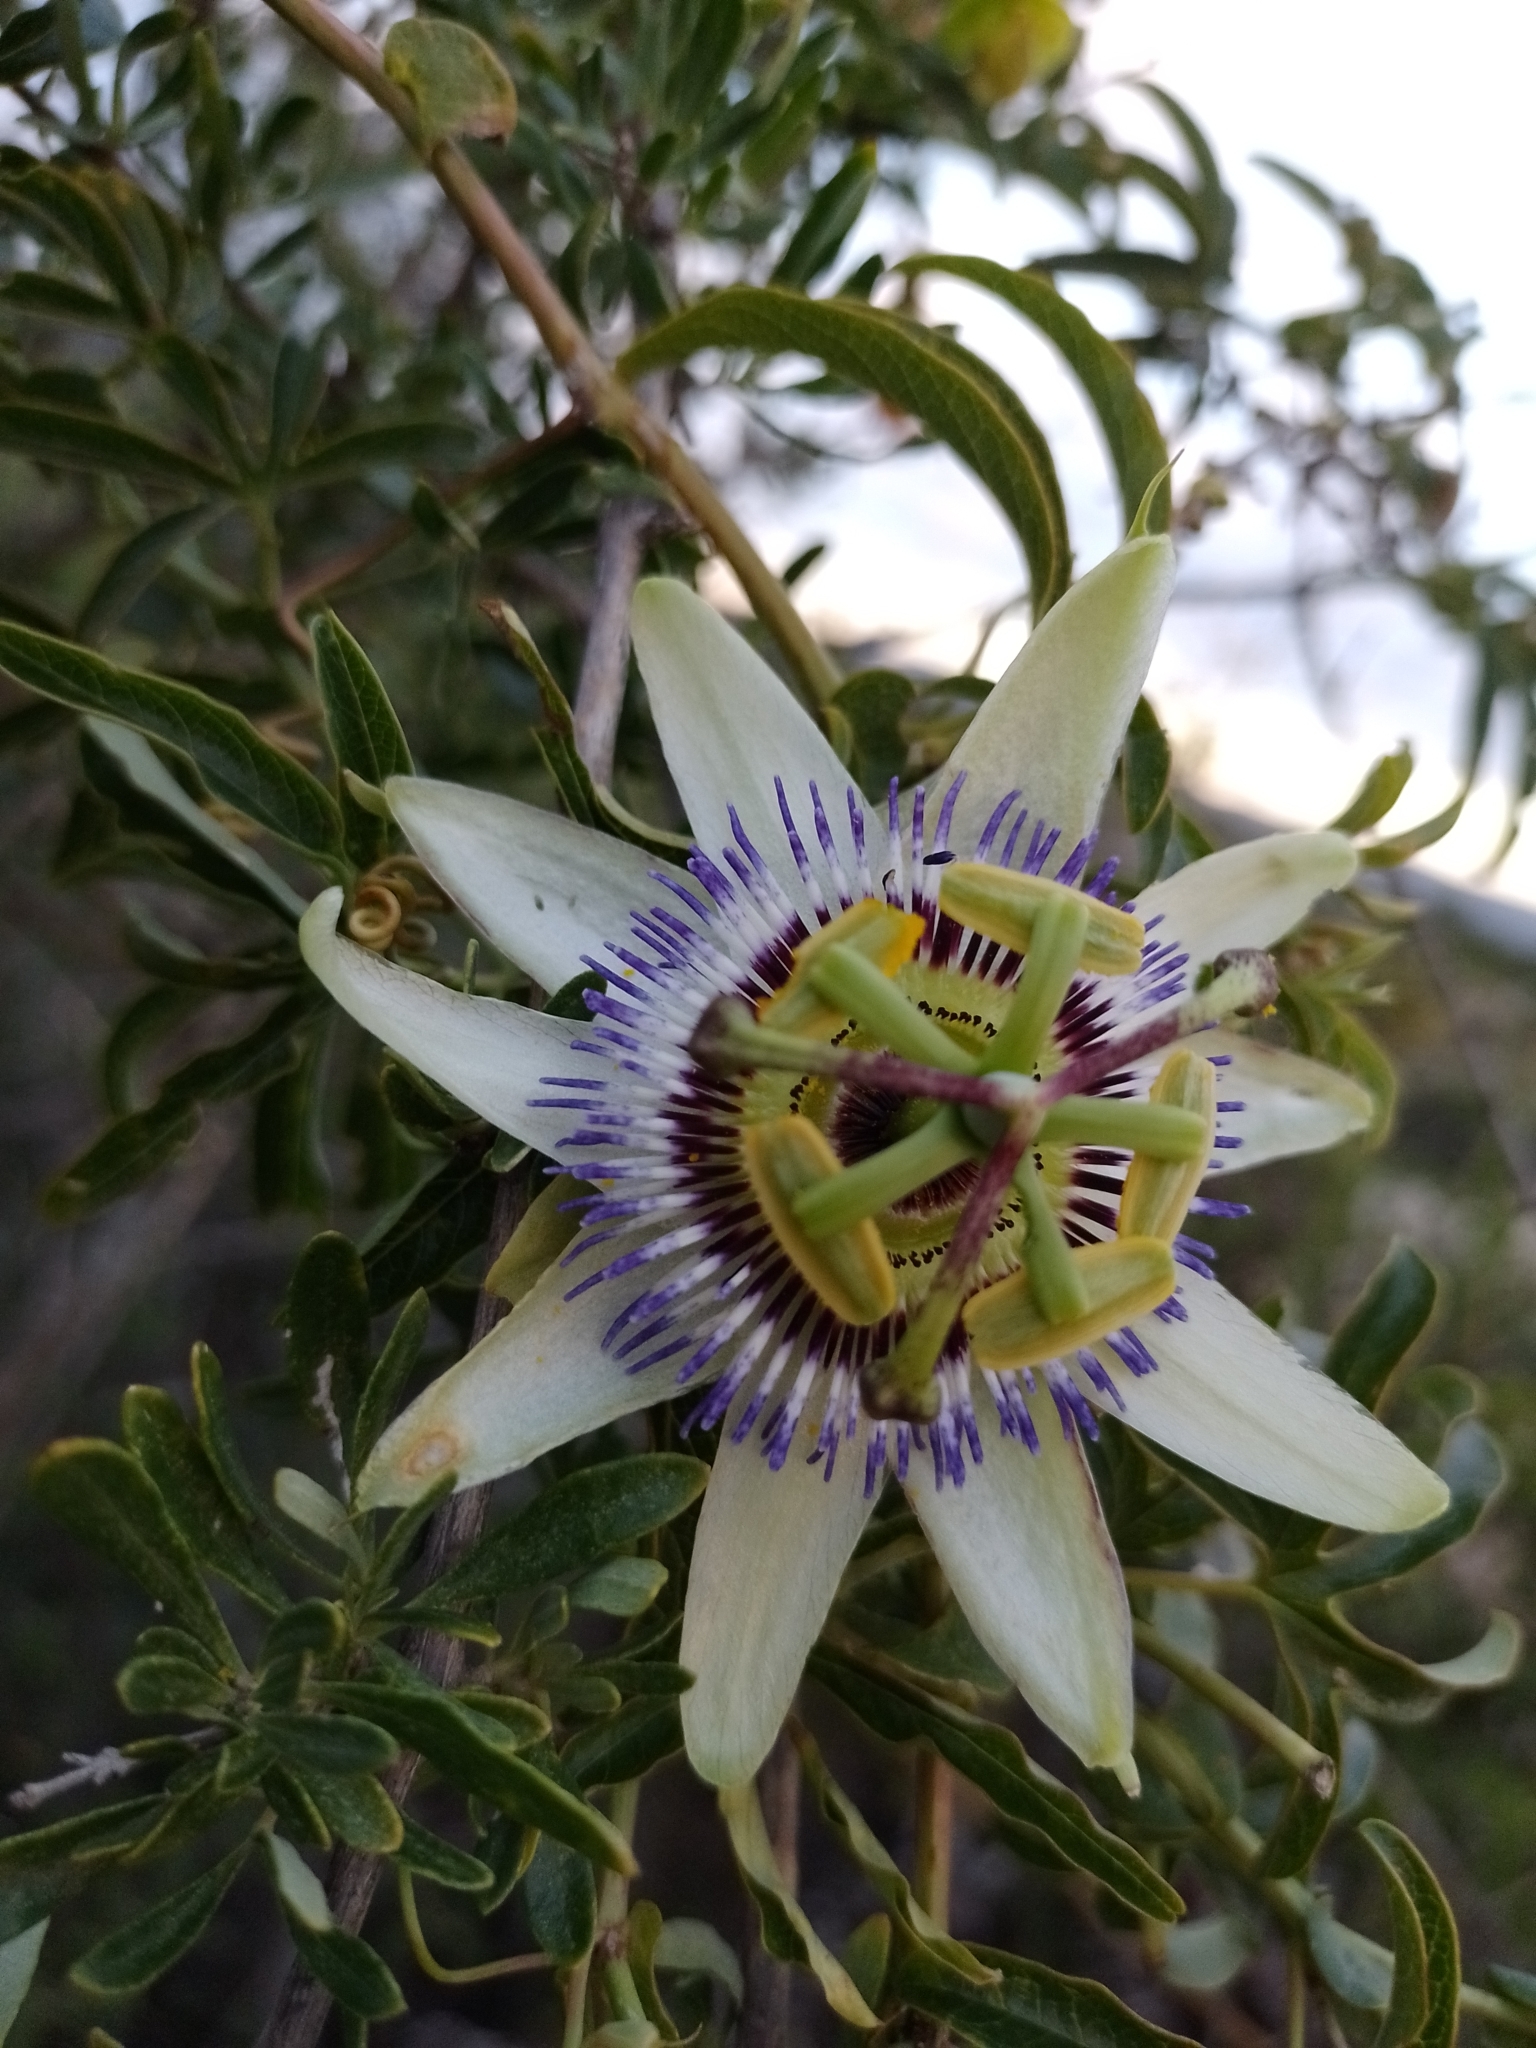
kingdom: Plantae
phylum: Tracheophyta
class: Magnoliopsida
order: Malpighiales
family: Passifloraceae
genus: Passiflora
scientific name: Passiflora caerulea
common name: Blue passionflower
